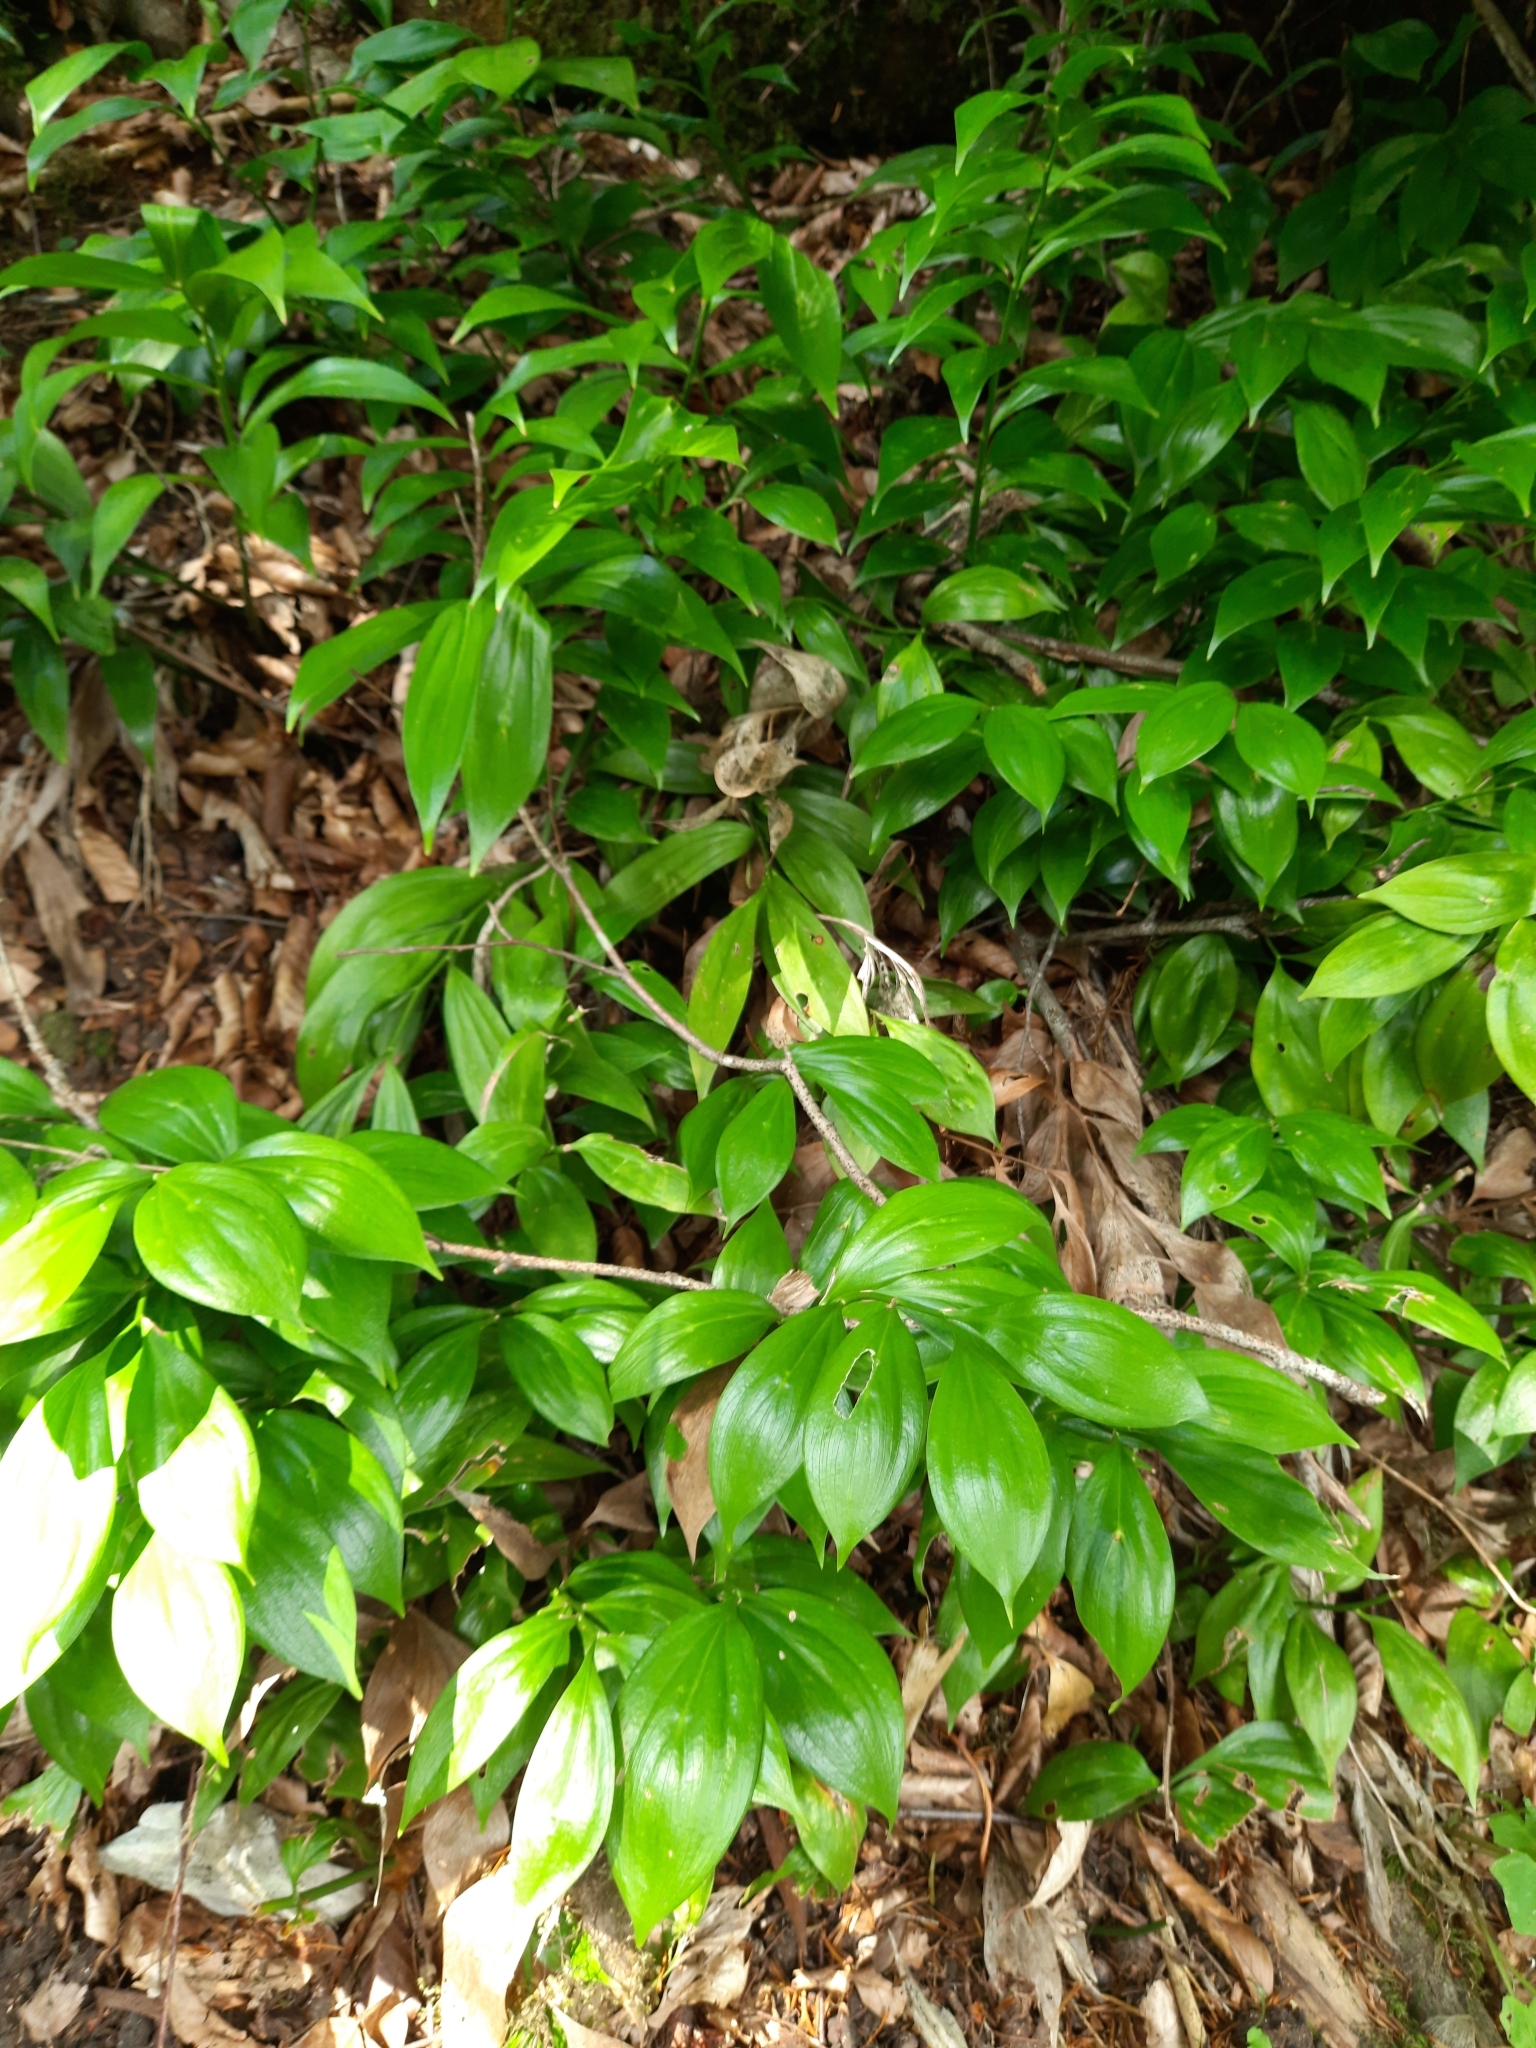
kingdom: Plantae
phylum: Tracheophyta
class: Liliopsida
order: Asparagales
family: Asparagaceae
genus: Ruscus
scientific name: Ruscus colchicus
